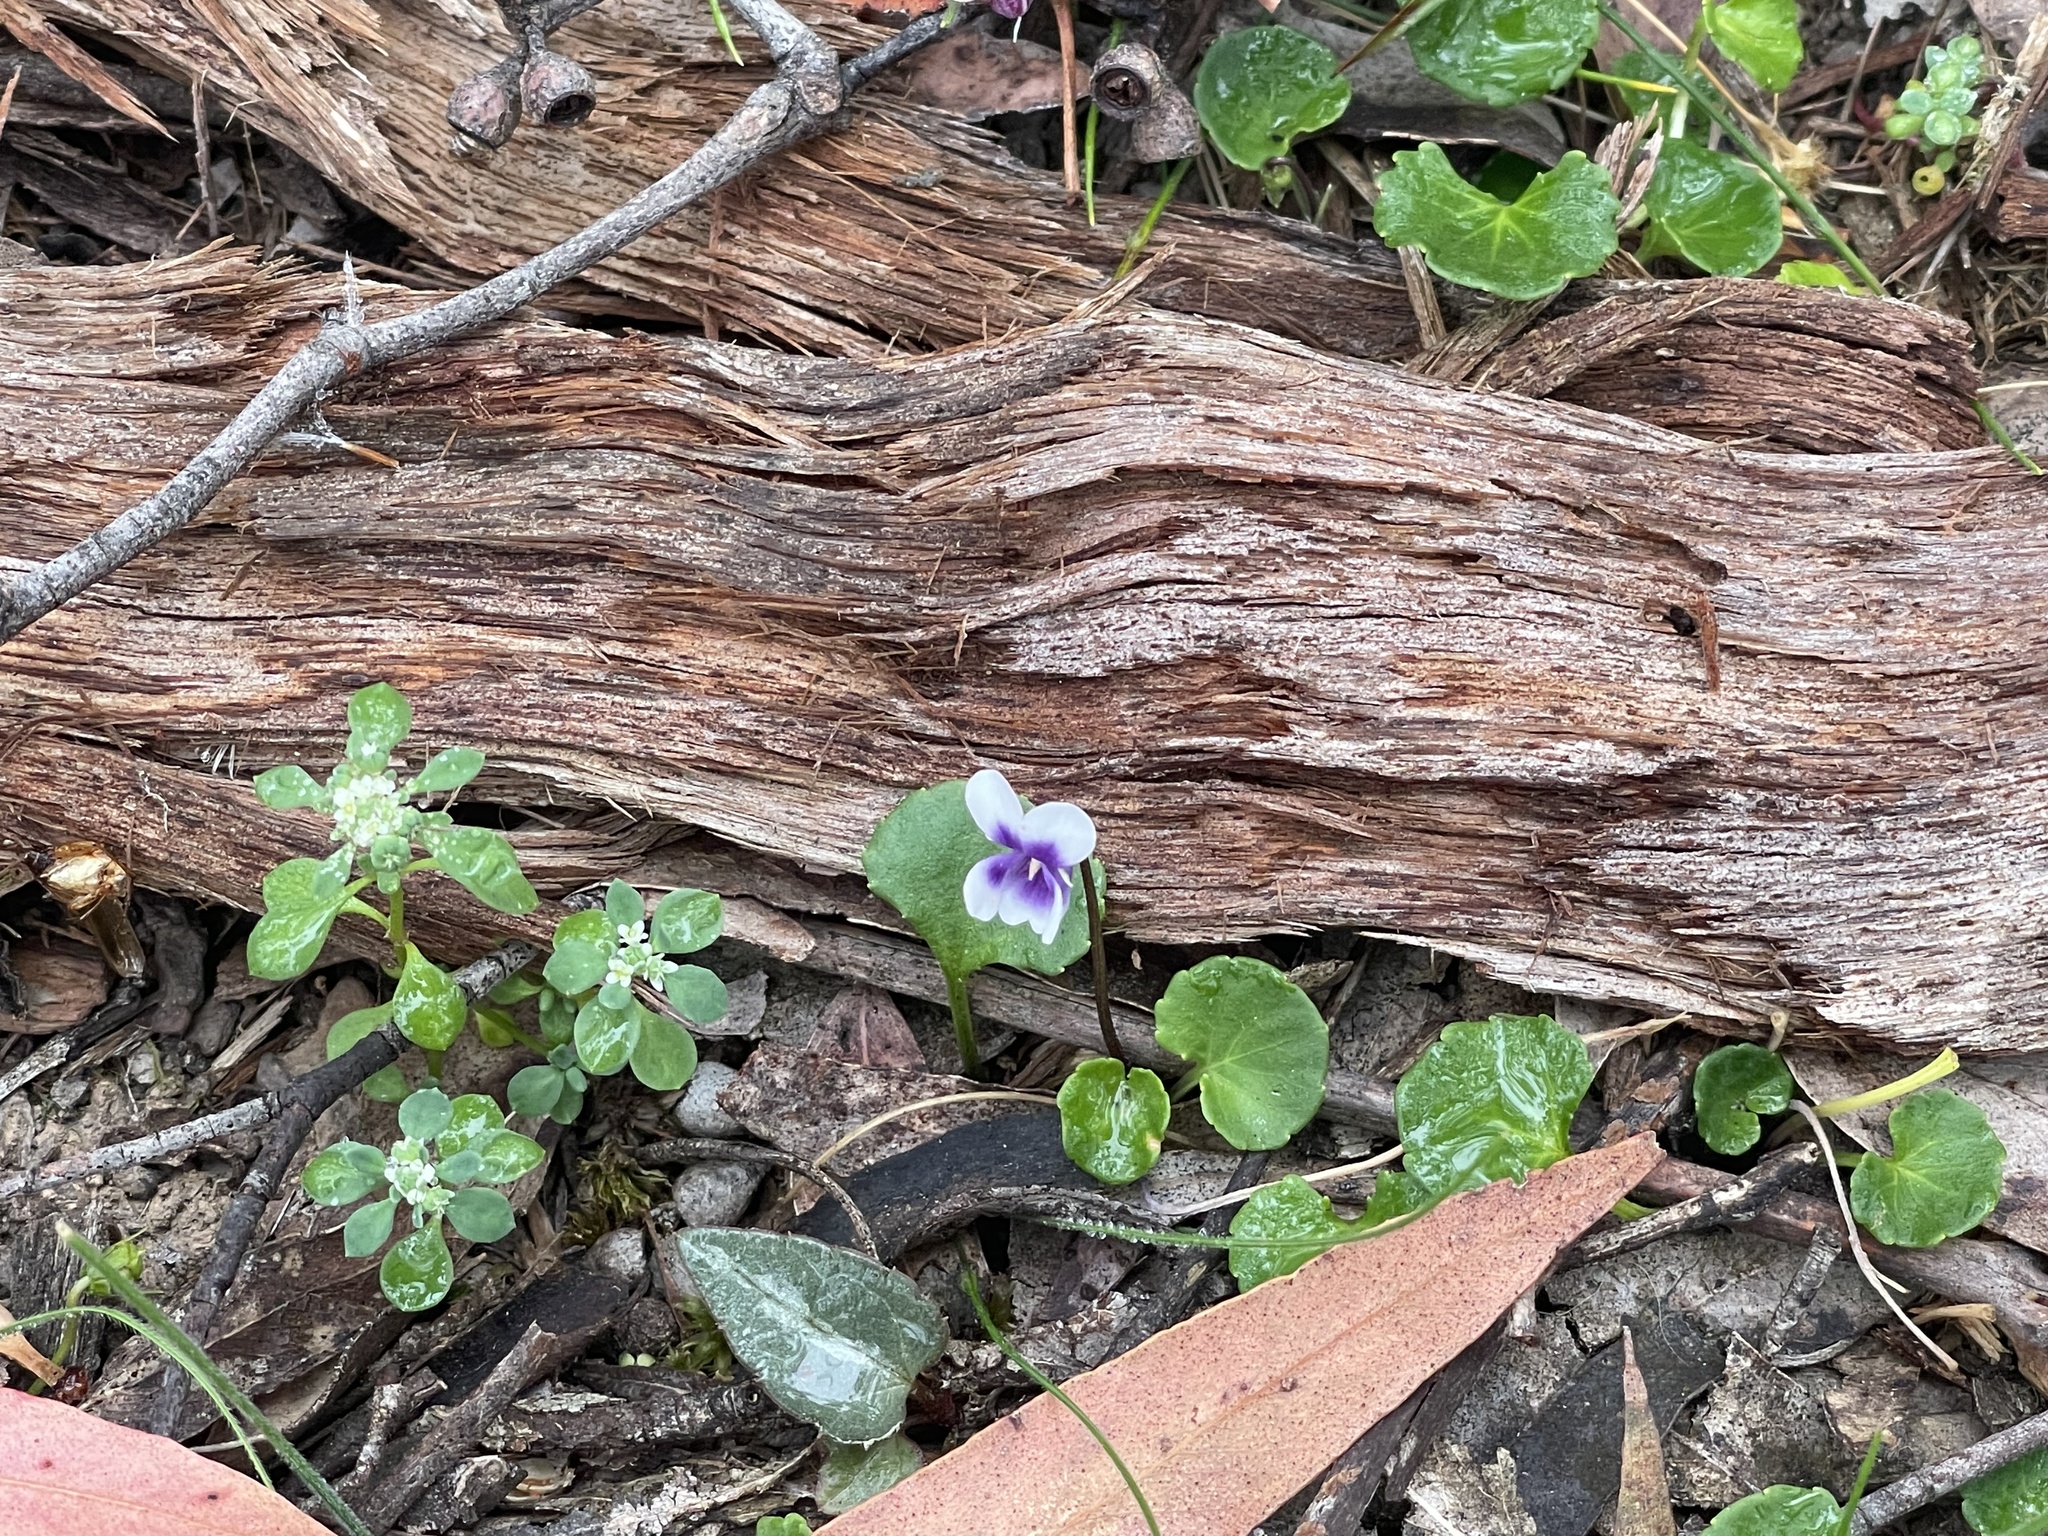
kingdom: Plantae
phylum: Tracheophyta
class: Magnoliopsida
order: Malpighiales
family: Violaceae
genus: Viola
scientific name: Viola hederacea
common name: Australian violet
